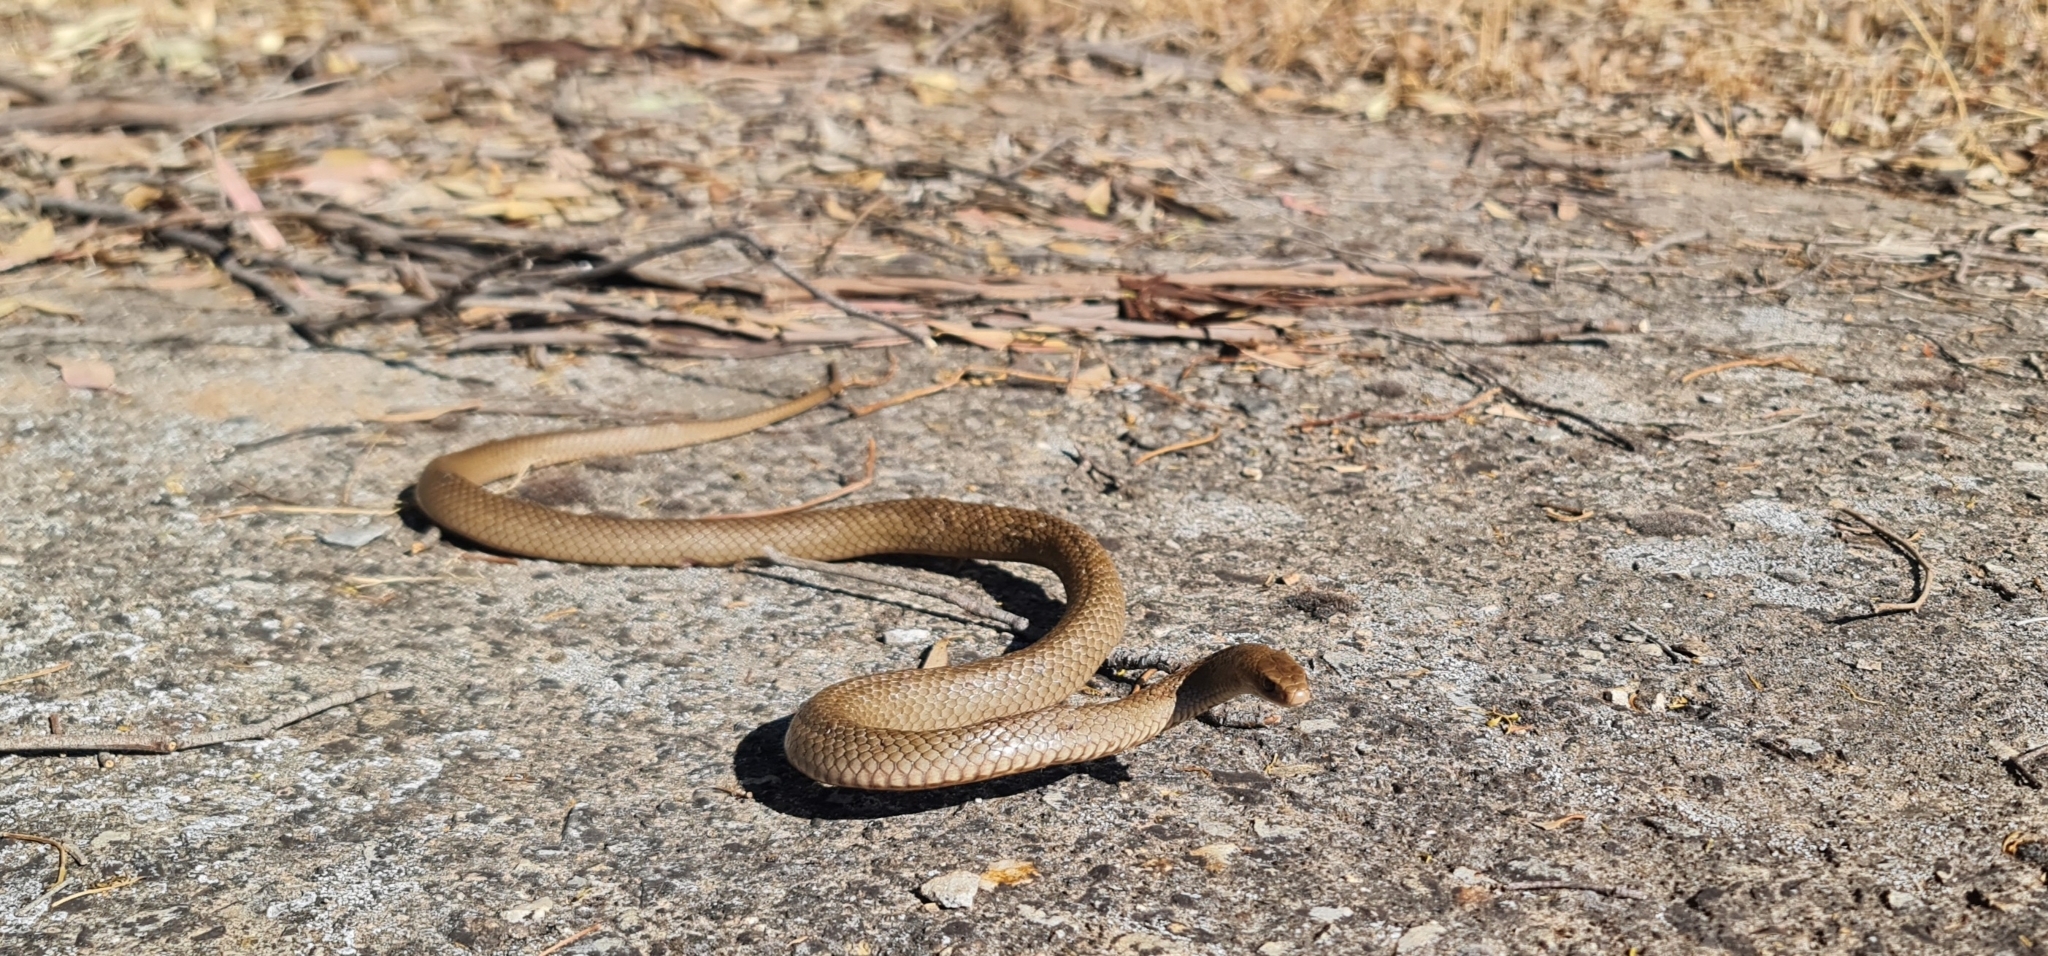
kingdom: Animalia
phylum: Chordata
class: Squamata
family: Elapidae
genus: Pseudonaja
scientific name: Pseudonaja textilis
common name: Eastern brown snake
